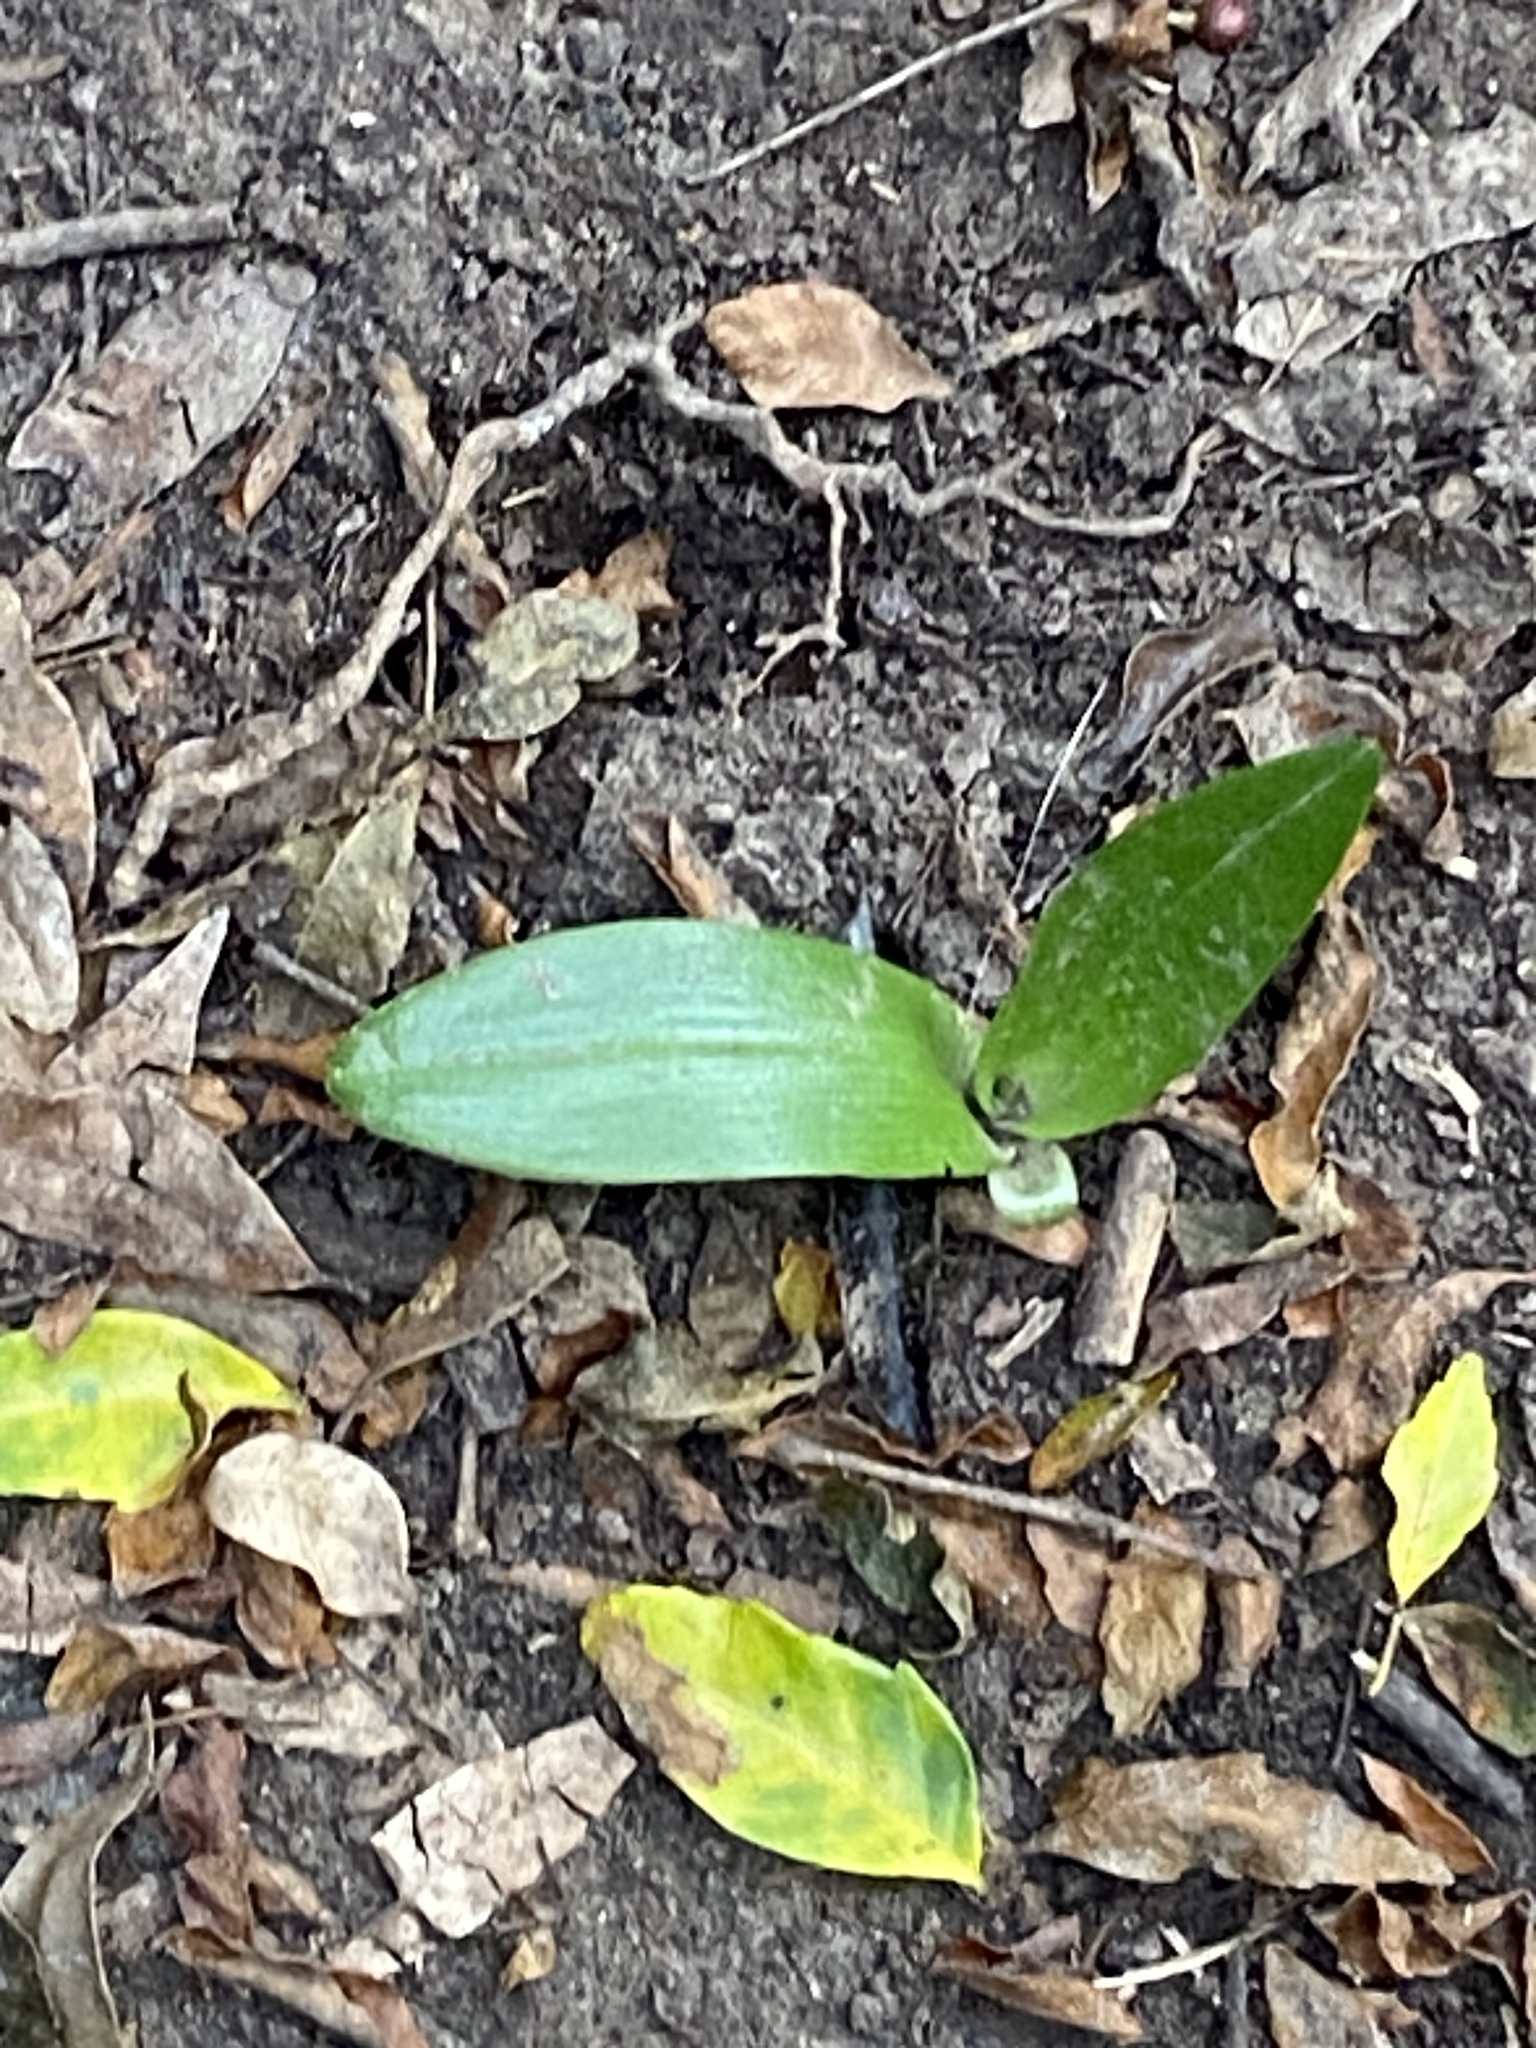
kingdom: Plantae
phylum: Tracheophyta
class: Liliopsida
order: Asparagales
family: Orchidaceae
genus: Chloraea
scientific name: Chloraea membranacea
